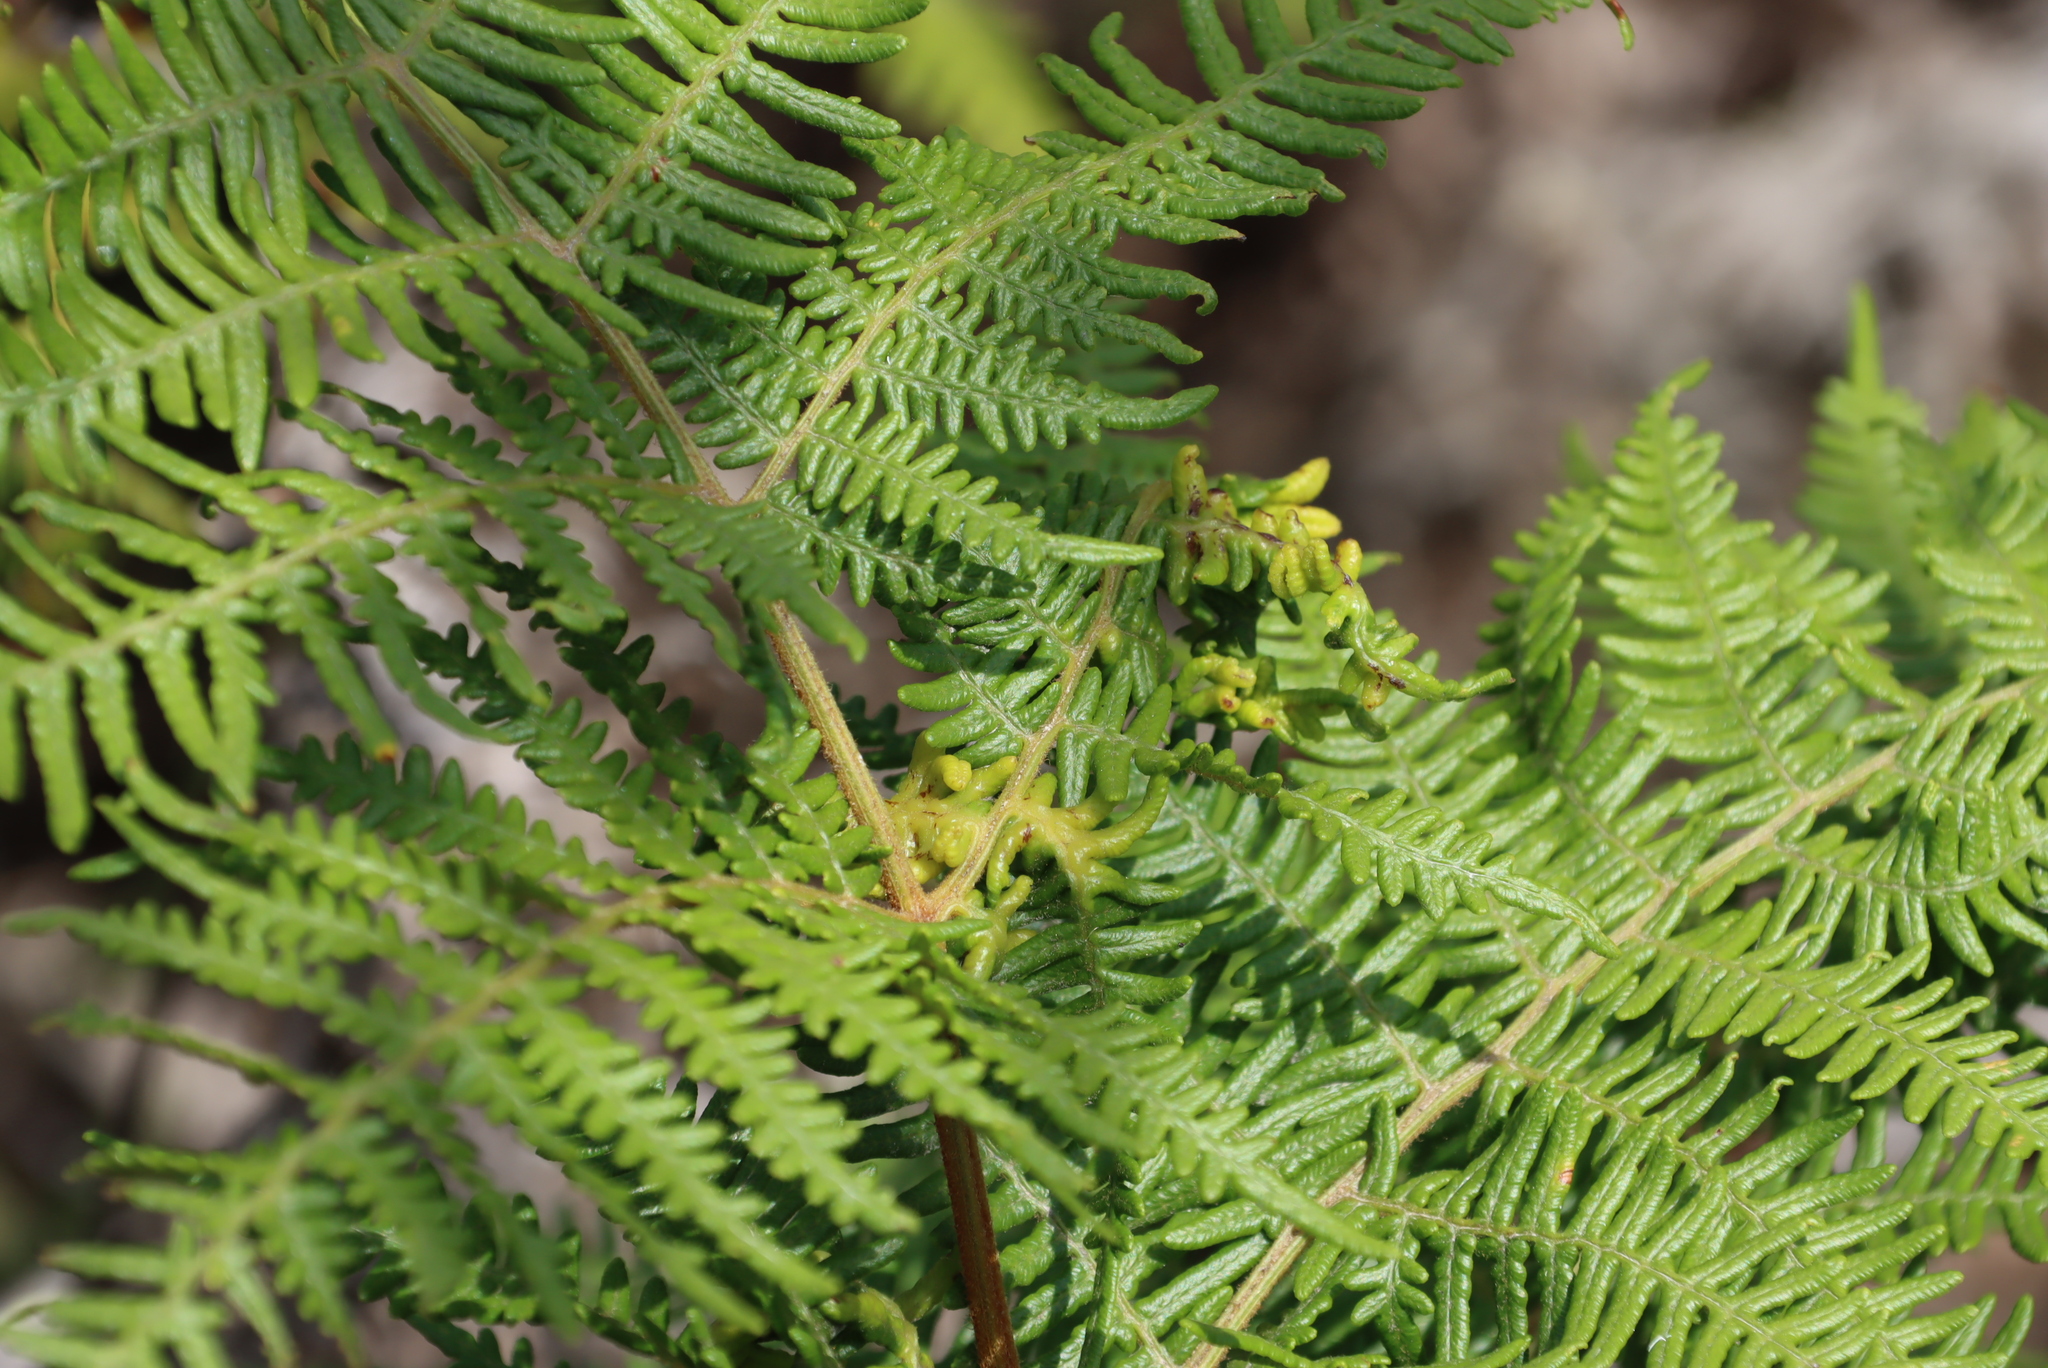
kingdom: Plantae
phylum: Tracheophyta
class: Polypodiopsida
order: Polypodiales
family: Dennstaedtiaceae
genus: Pteridium
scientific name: Pteridium aquilinum
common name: Bracken
